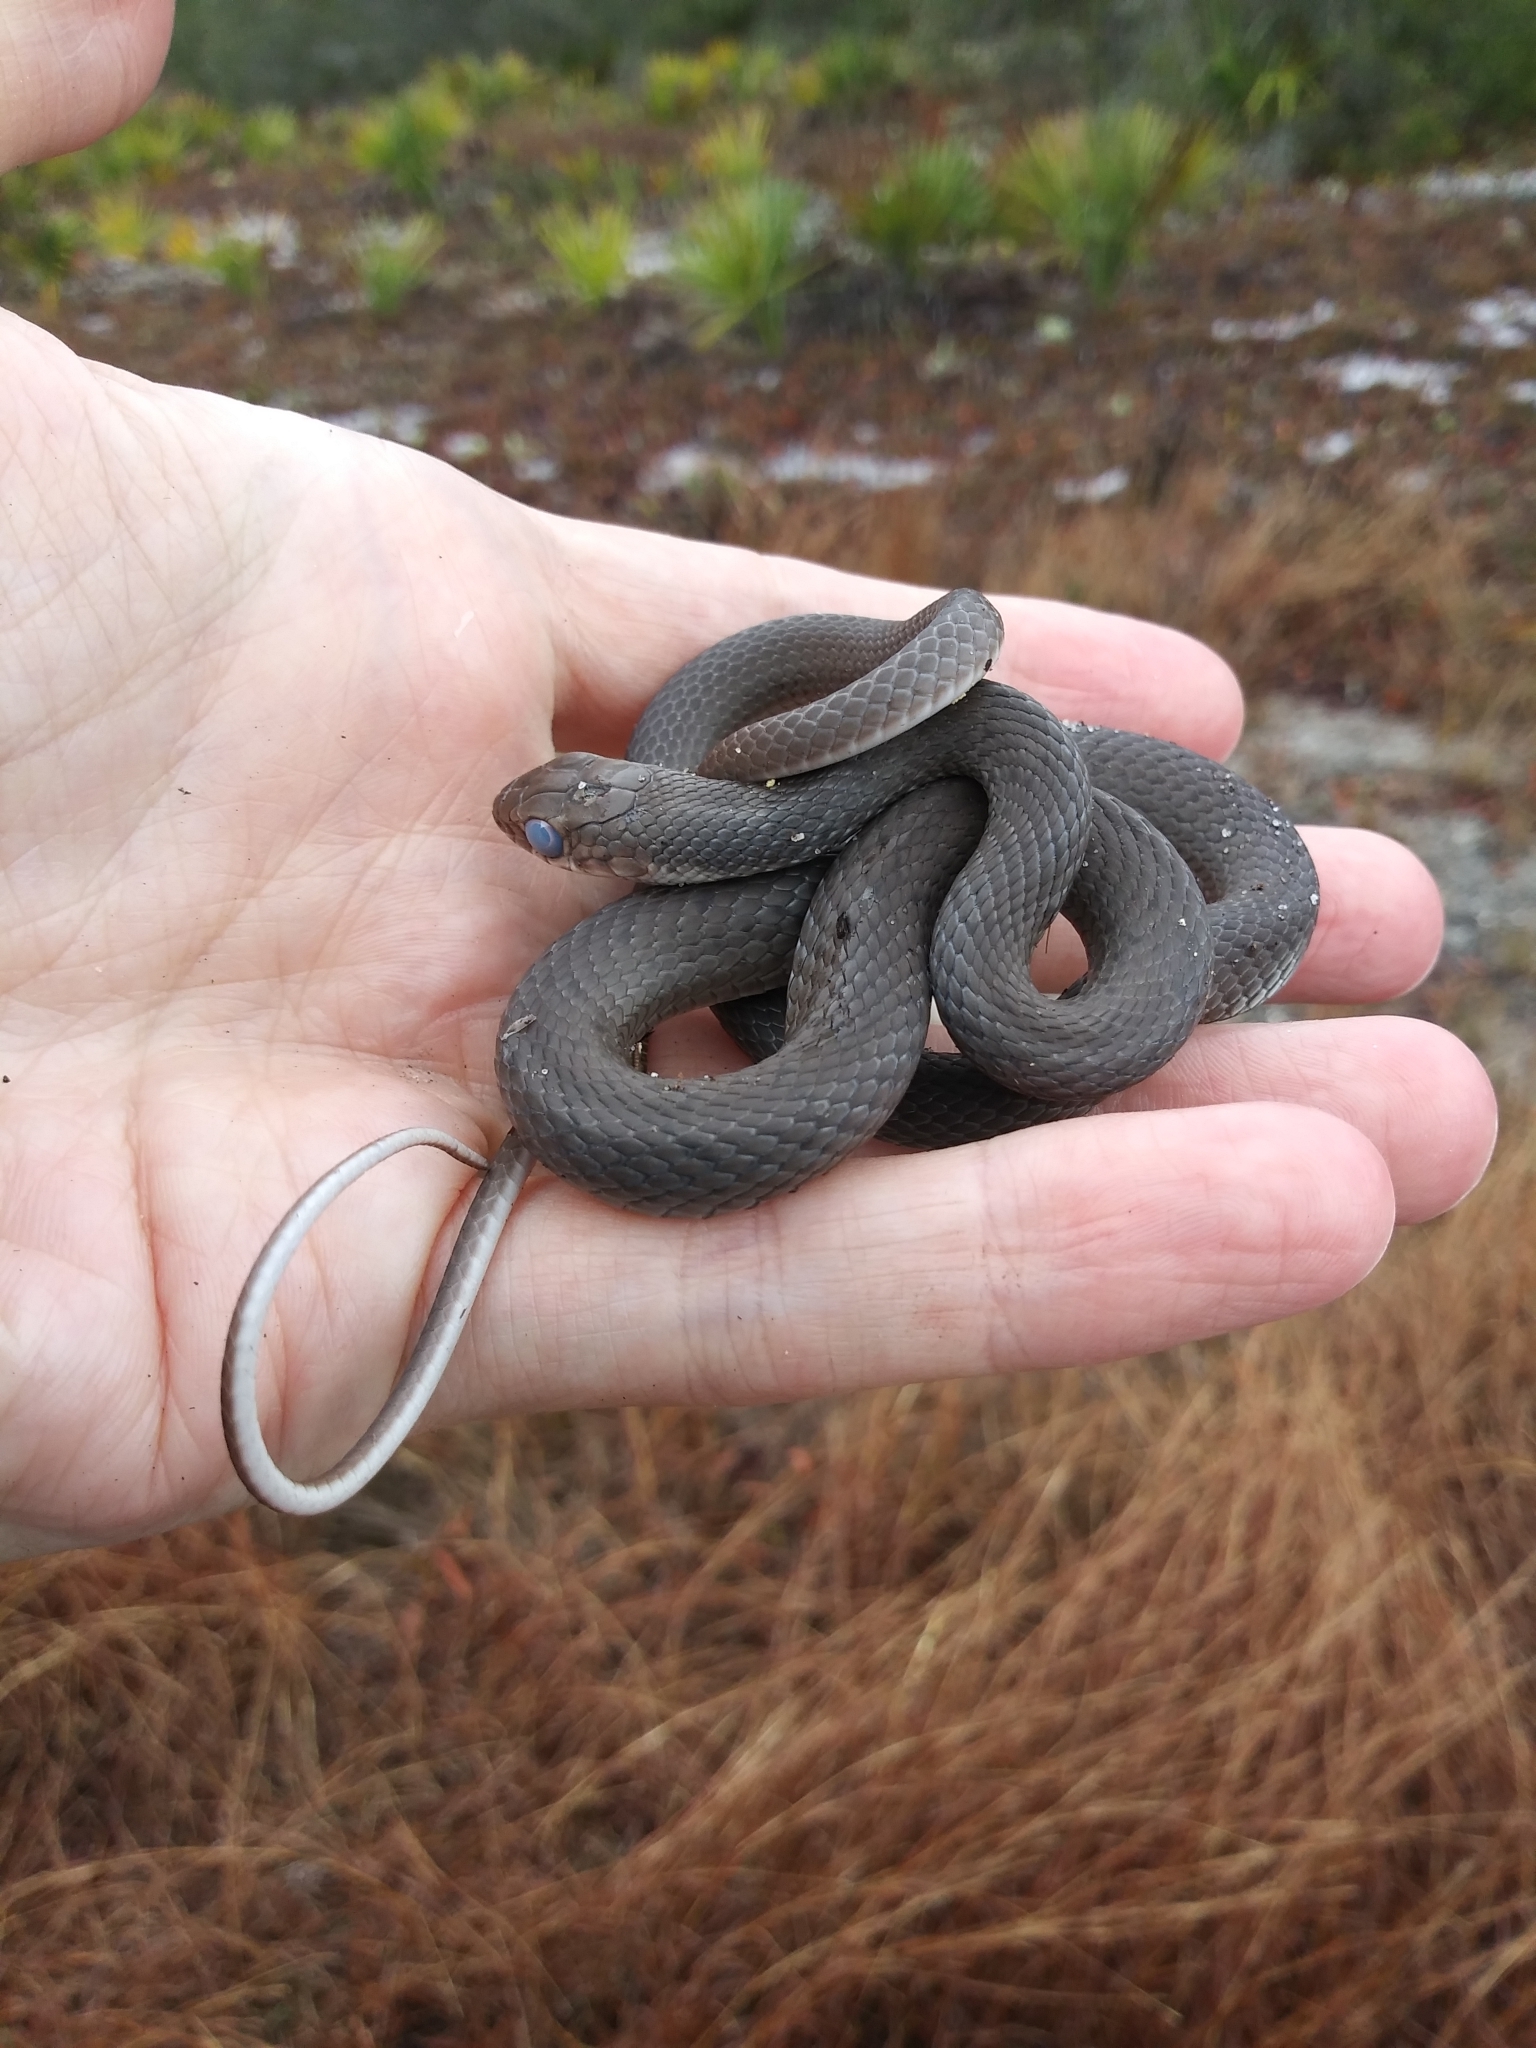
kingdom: Animalia
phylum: Chordata
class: Squamata
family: Colubridae
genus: Coluber
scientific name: Coluber constrictor
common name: Eastern racer
